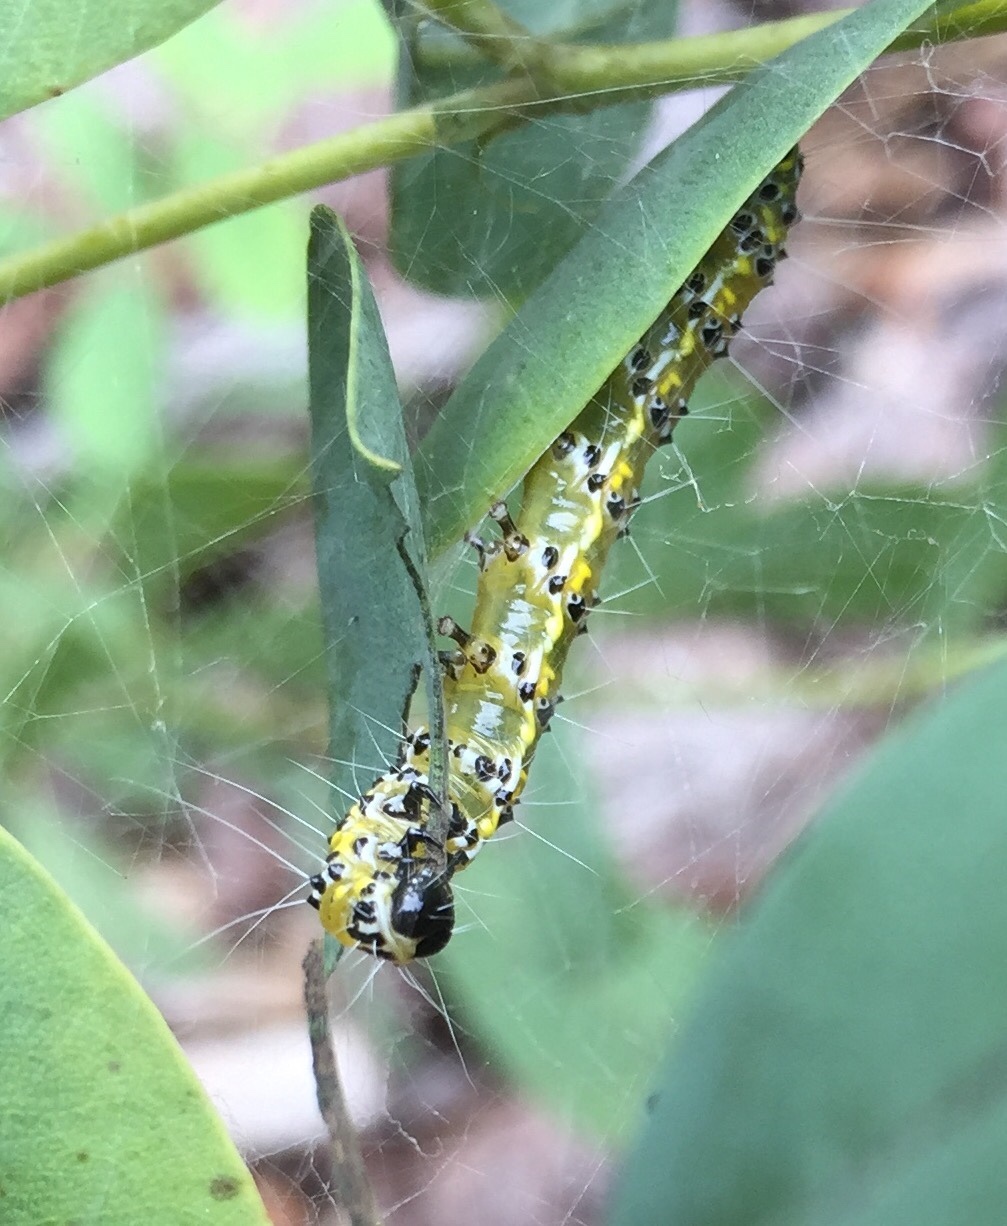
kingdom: Animalia
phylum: Arthropoda
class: Insecta
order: Lepidoptera
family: Crambidae
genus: Uresiphita
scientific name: Uresiphita reversalis
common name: Genista broom moth
